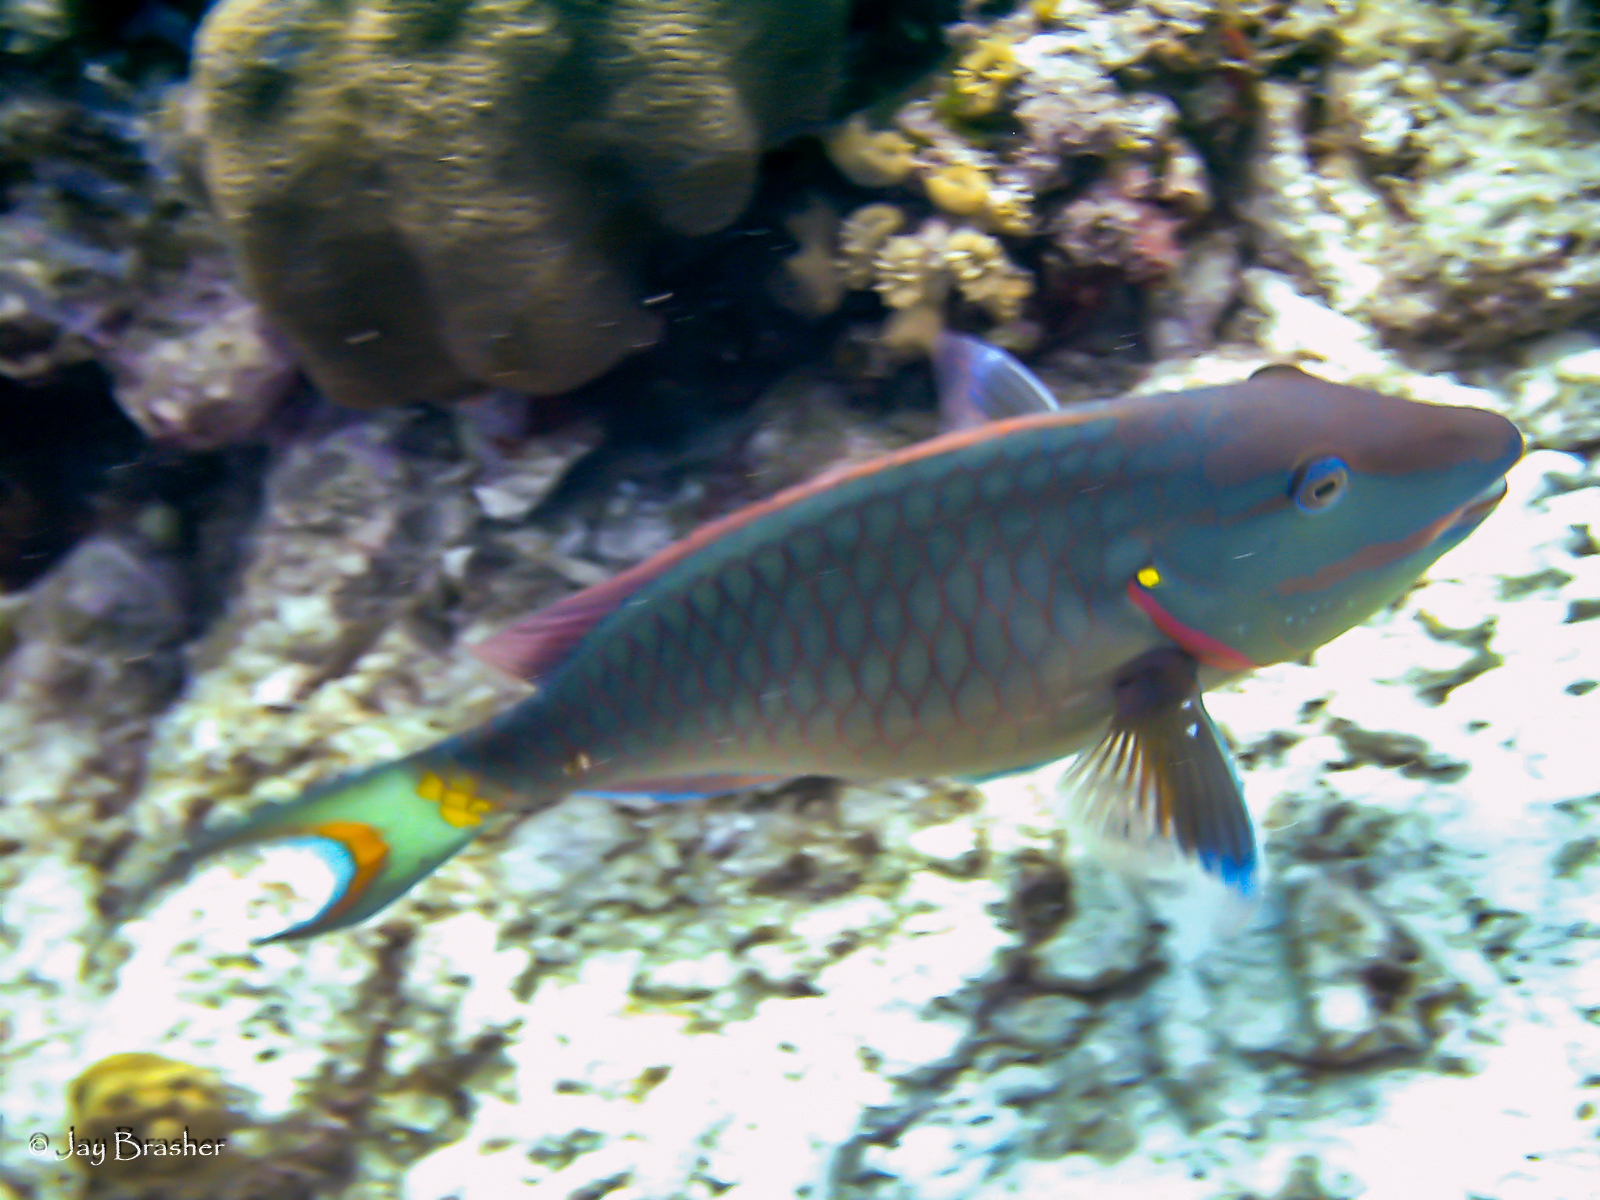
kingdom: Animalia
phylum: Chordata
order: Perciformes
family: Scaridae
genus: Sparisoma
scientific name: Sparisoma viride
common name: Stoplight parrotfish
